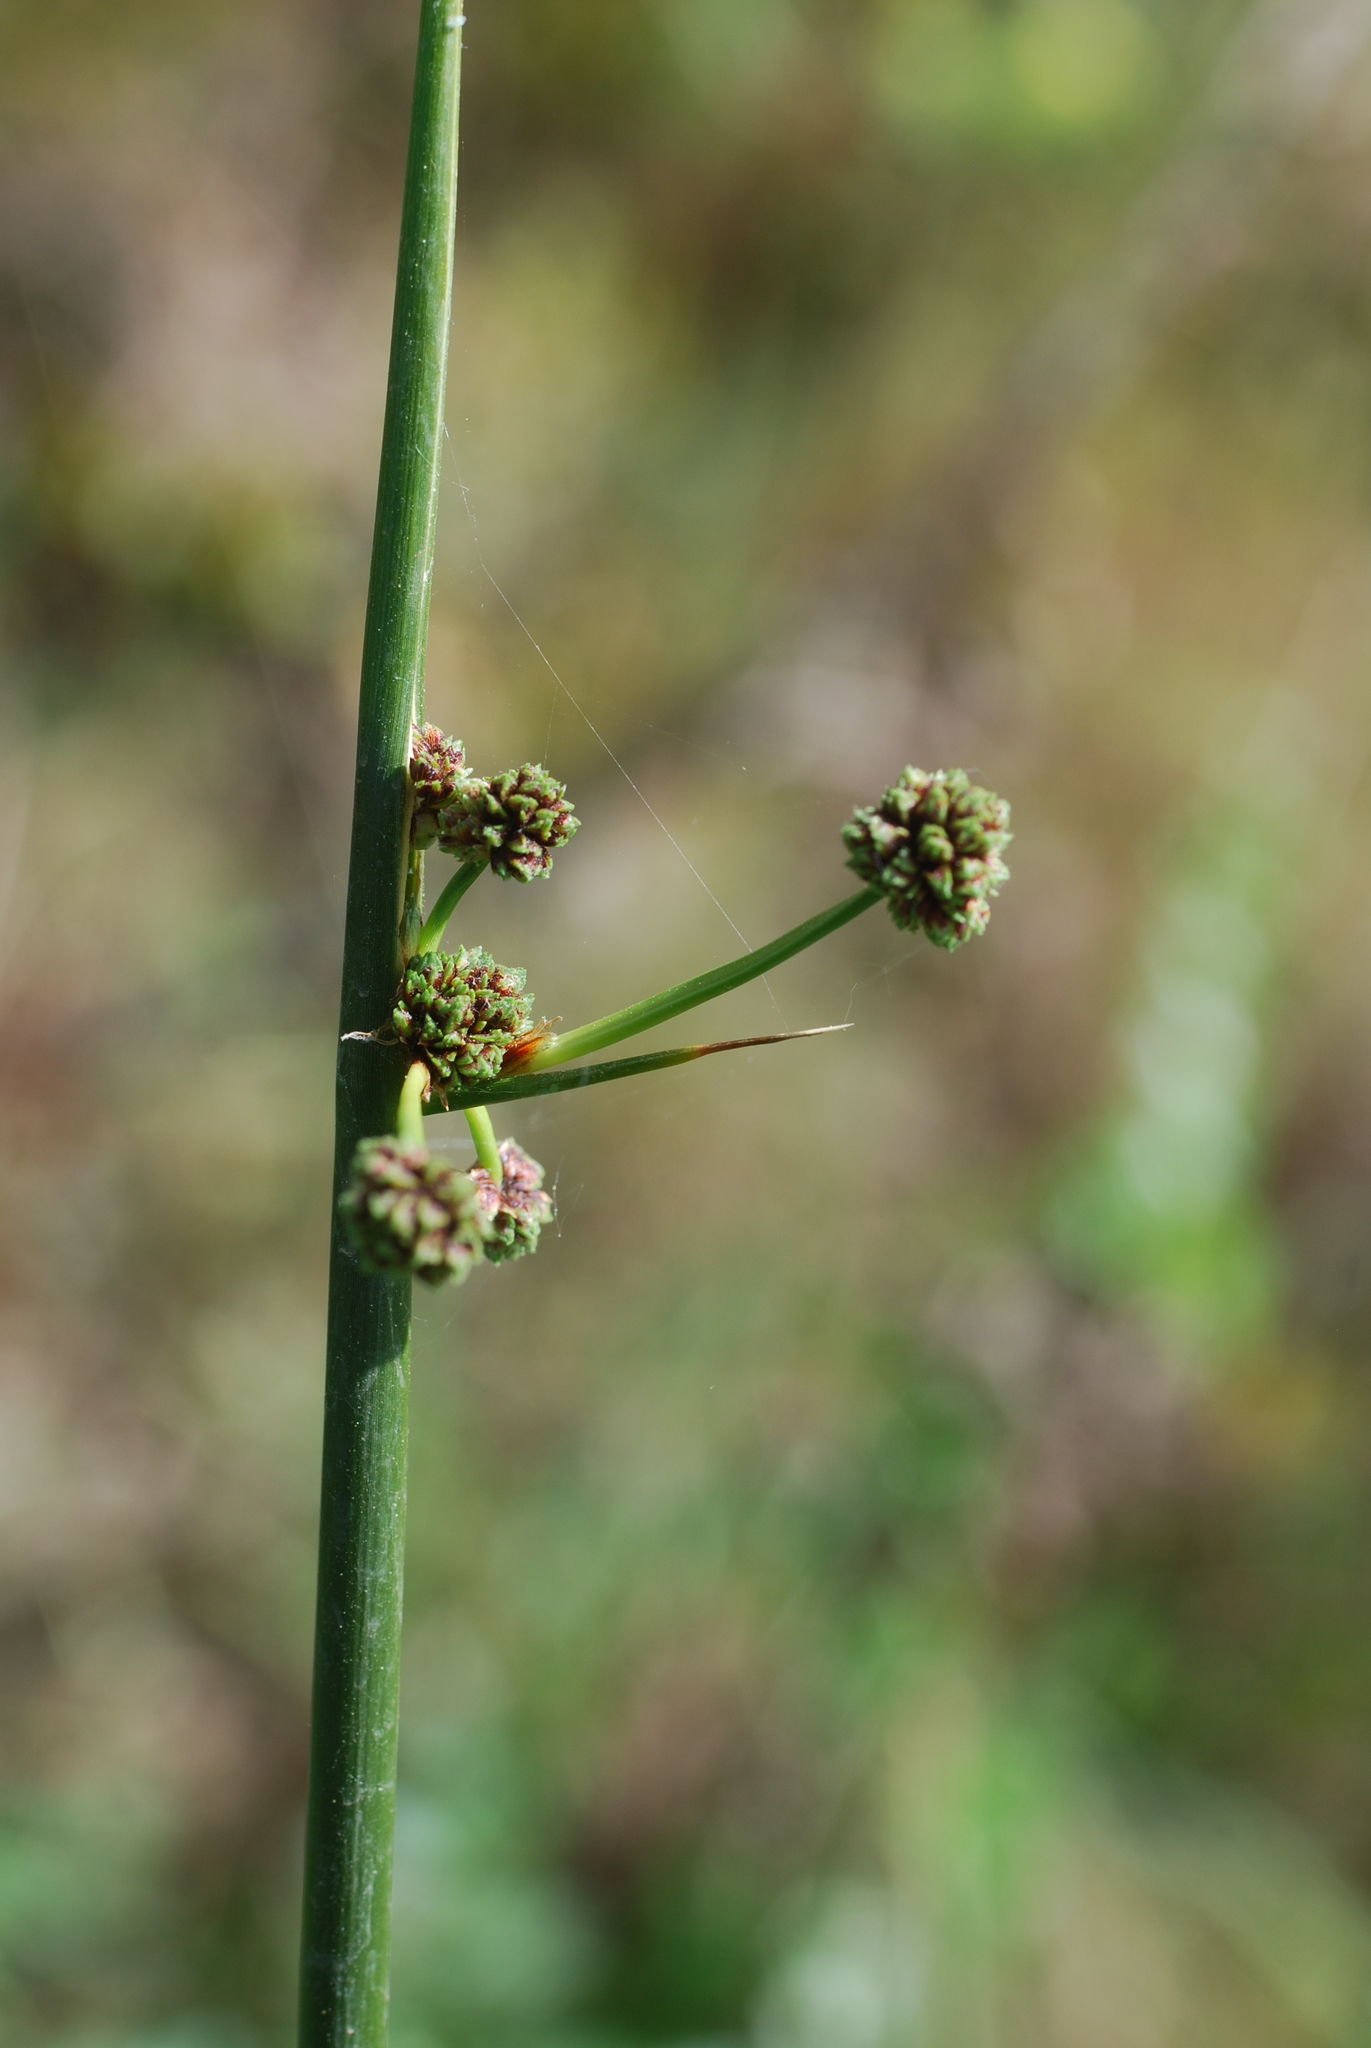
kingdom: Plantae
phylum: Tracheophyta
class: Liliopsida
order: Poales
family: Cyperaceae
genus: Scirpoides
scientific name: Scirpoides holoschoenus
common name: Round-headed club-rush
